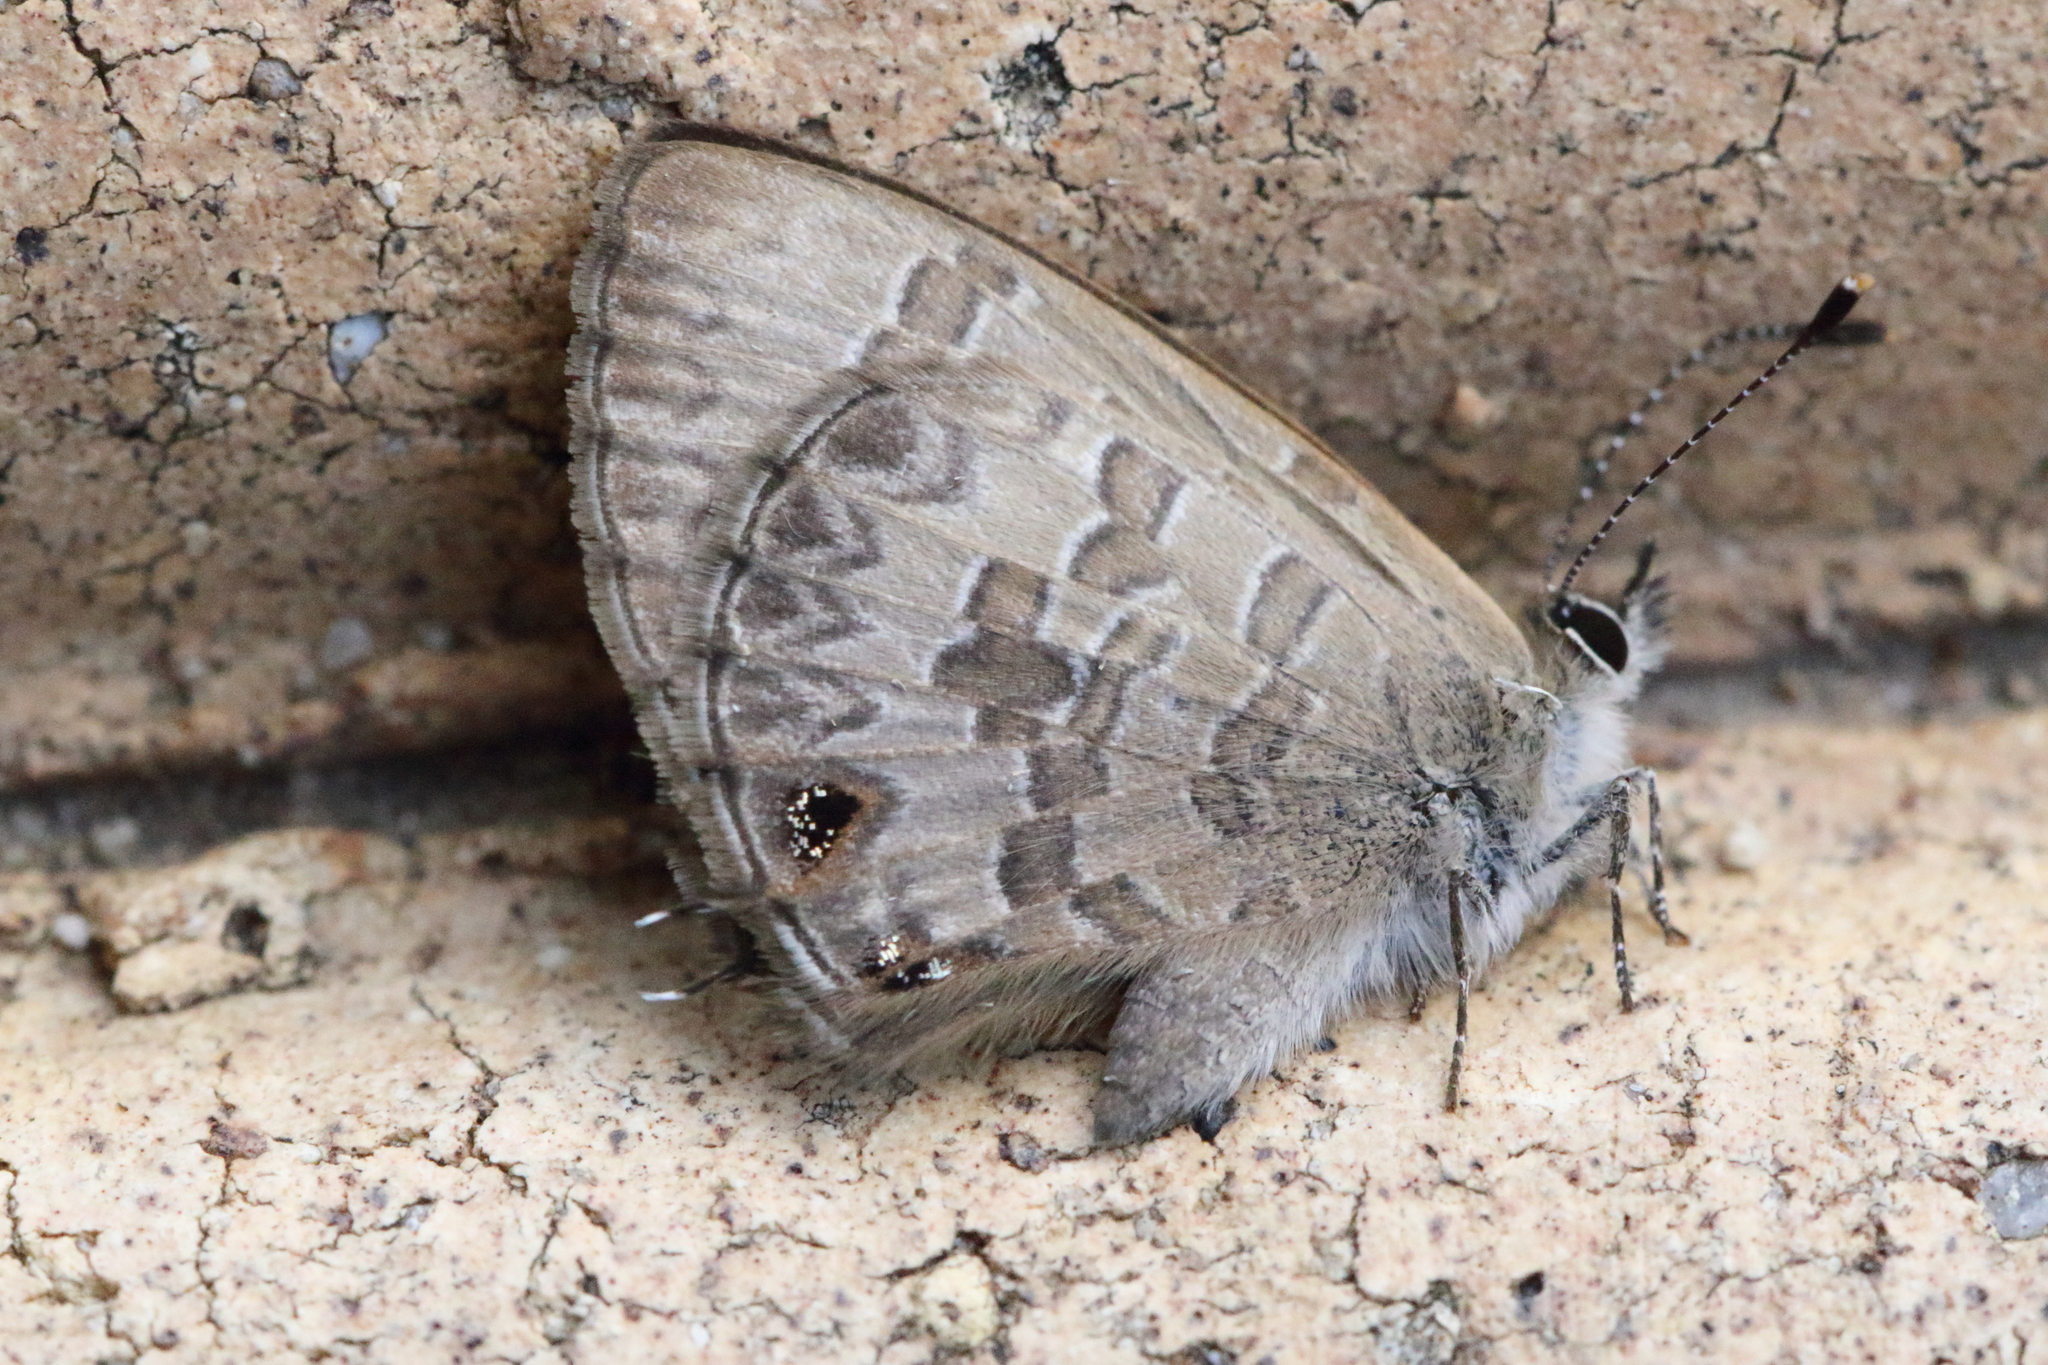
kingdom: Animalia
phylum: Arthropoda
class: Insecta
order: Lepidoptera
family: Lycaenidae
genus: Prosotas
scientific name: Prosotas felderi
